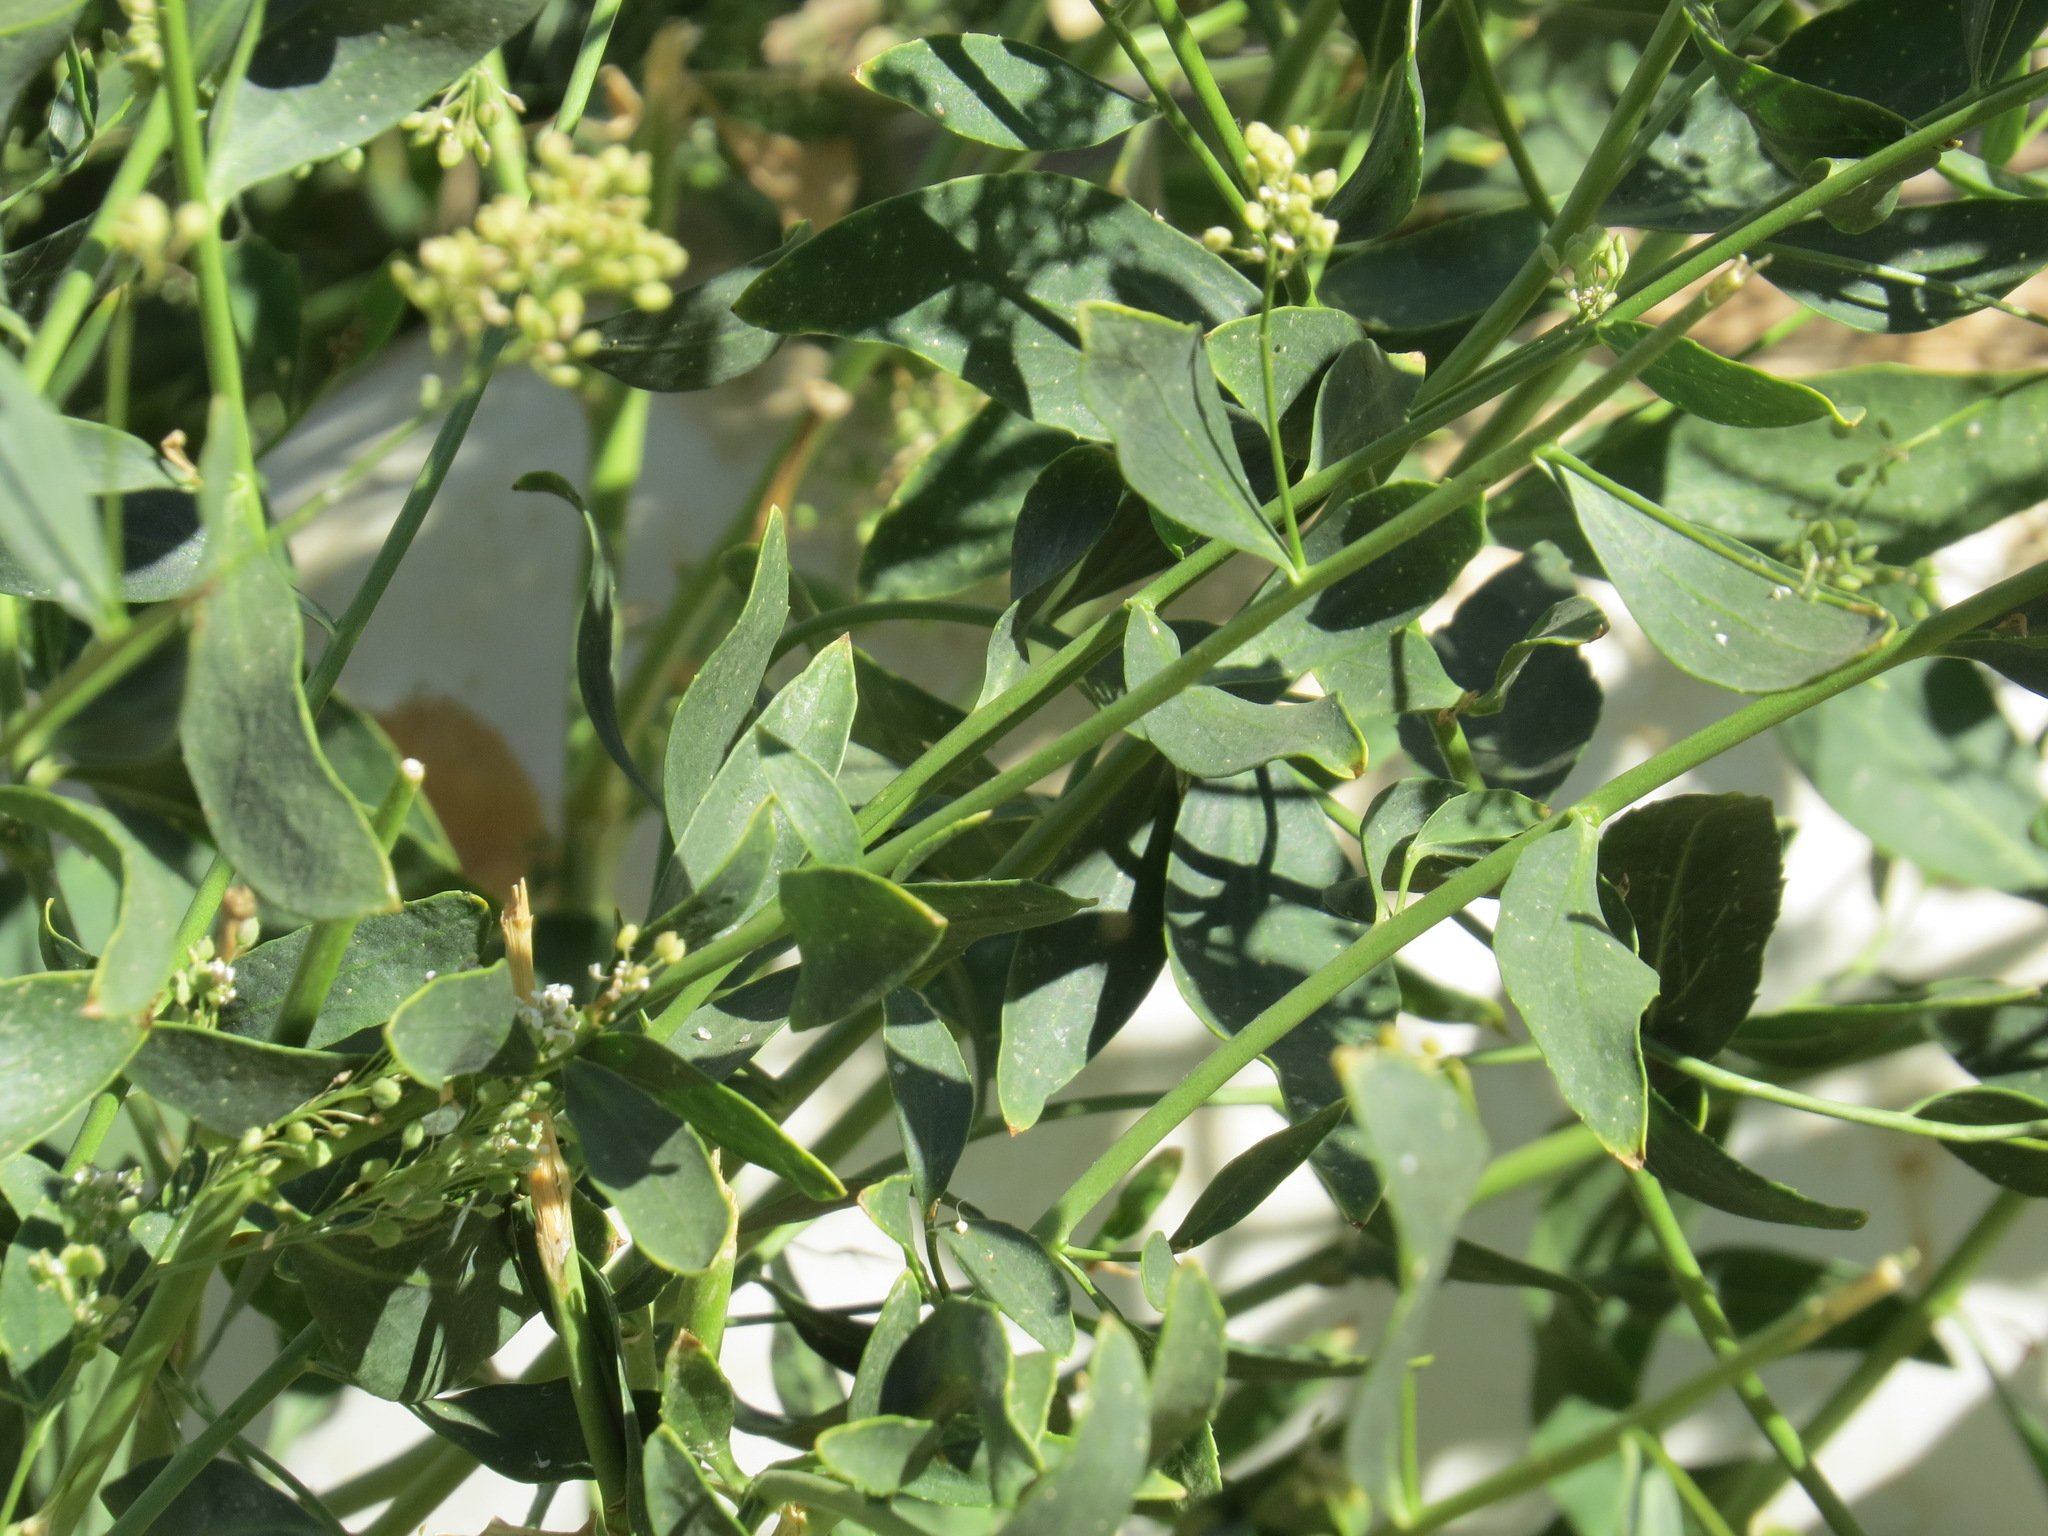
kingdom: Plantae
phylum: Tracheophyta
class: Magnoliopsida
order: Brassicales
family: Brassicaceae
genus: Lepidium
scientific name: Lepidium latifolium
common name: Dittander
